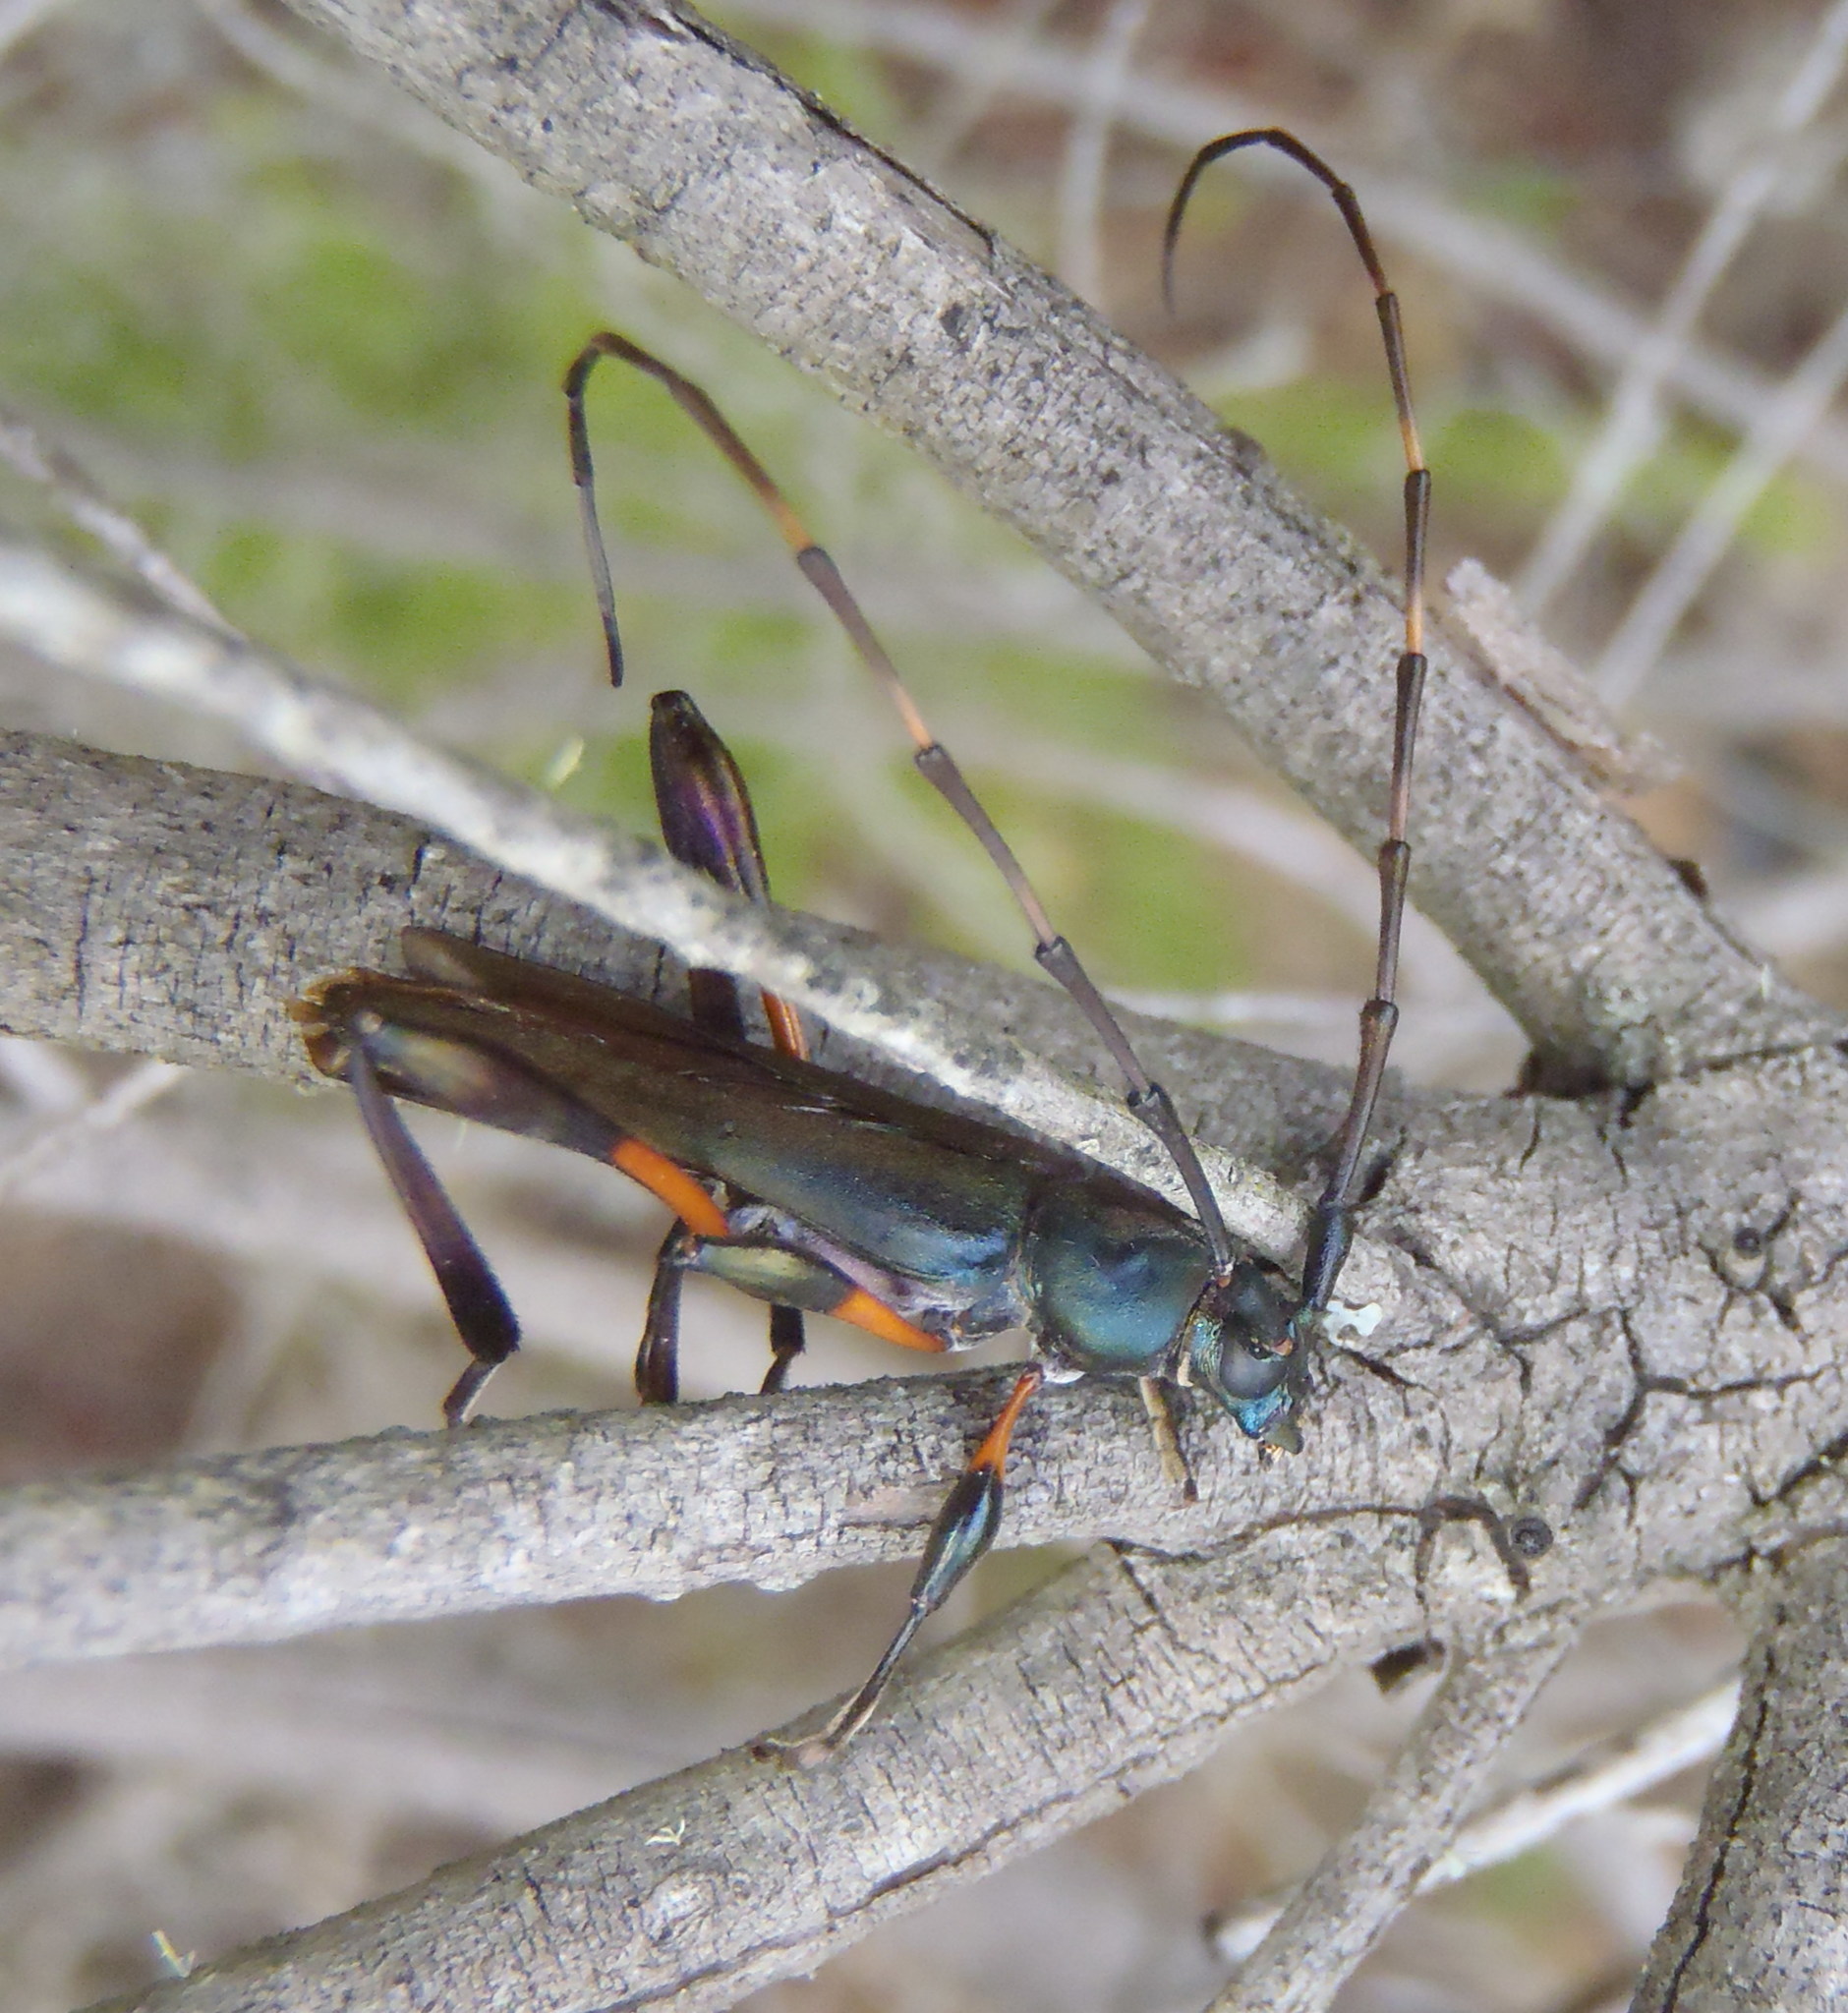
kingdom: Animalia
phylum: Arthropoda
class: Insecta
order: Coleoptera
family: Cerambycidae
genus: Litopus
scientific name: Litopus latipes
